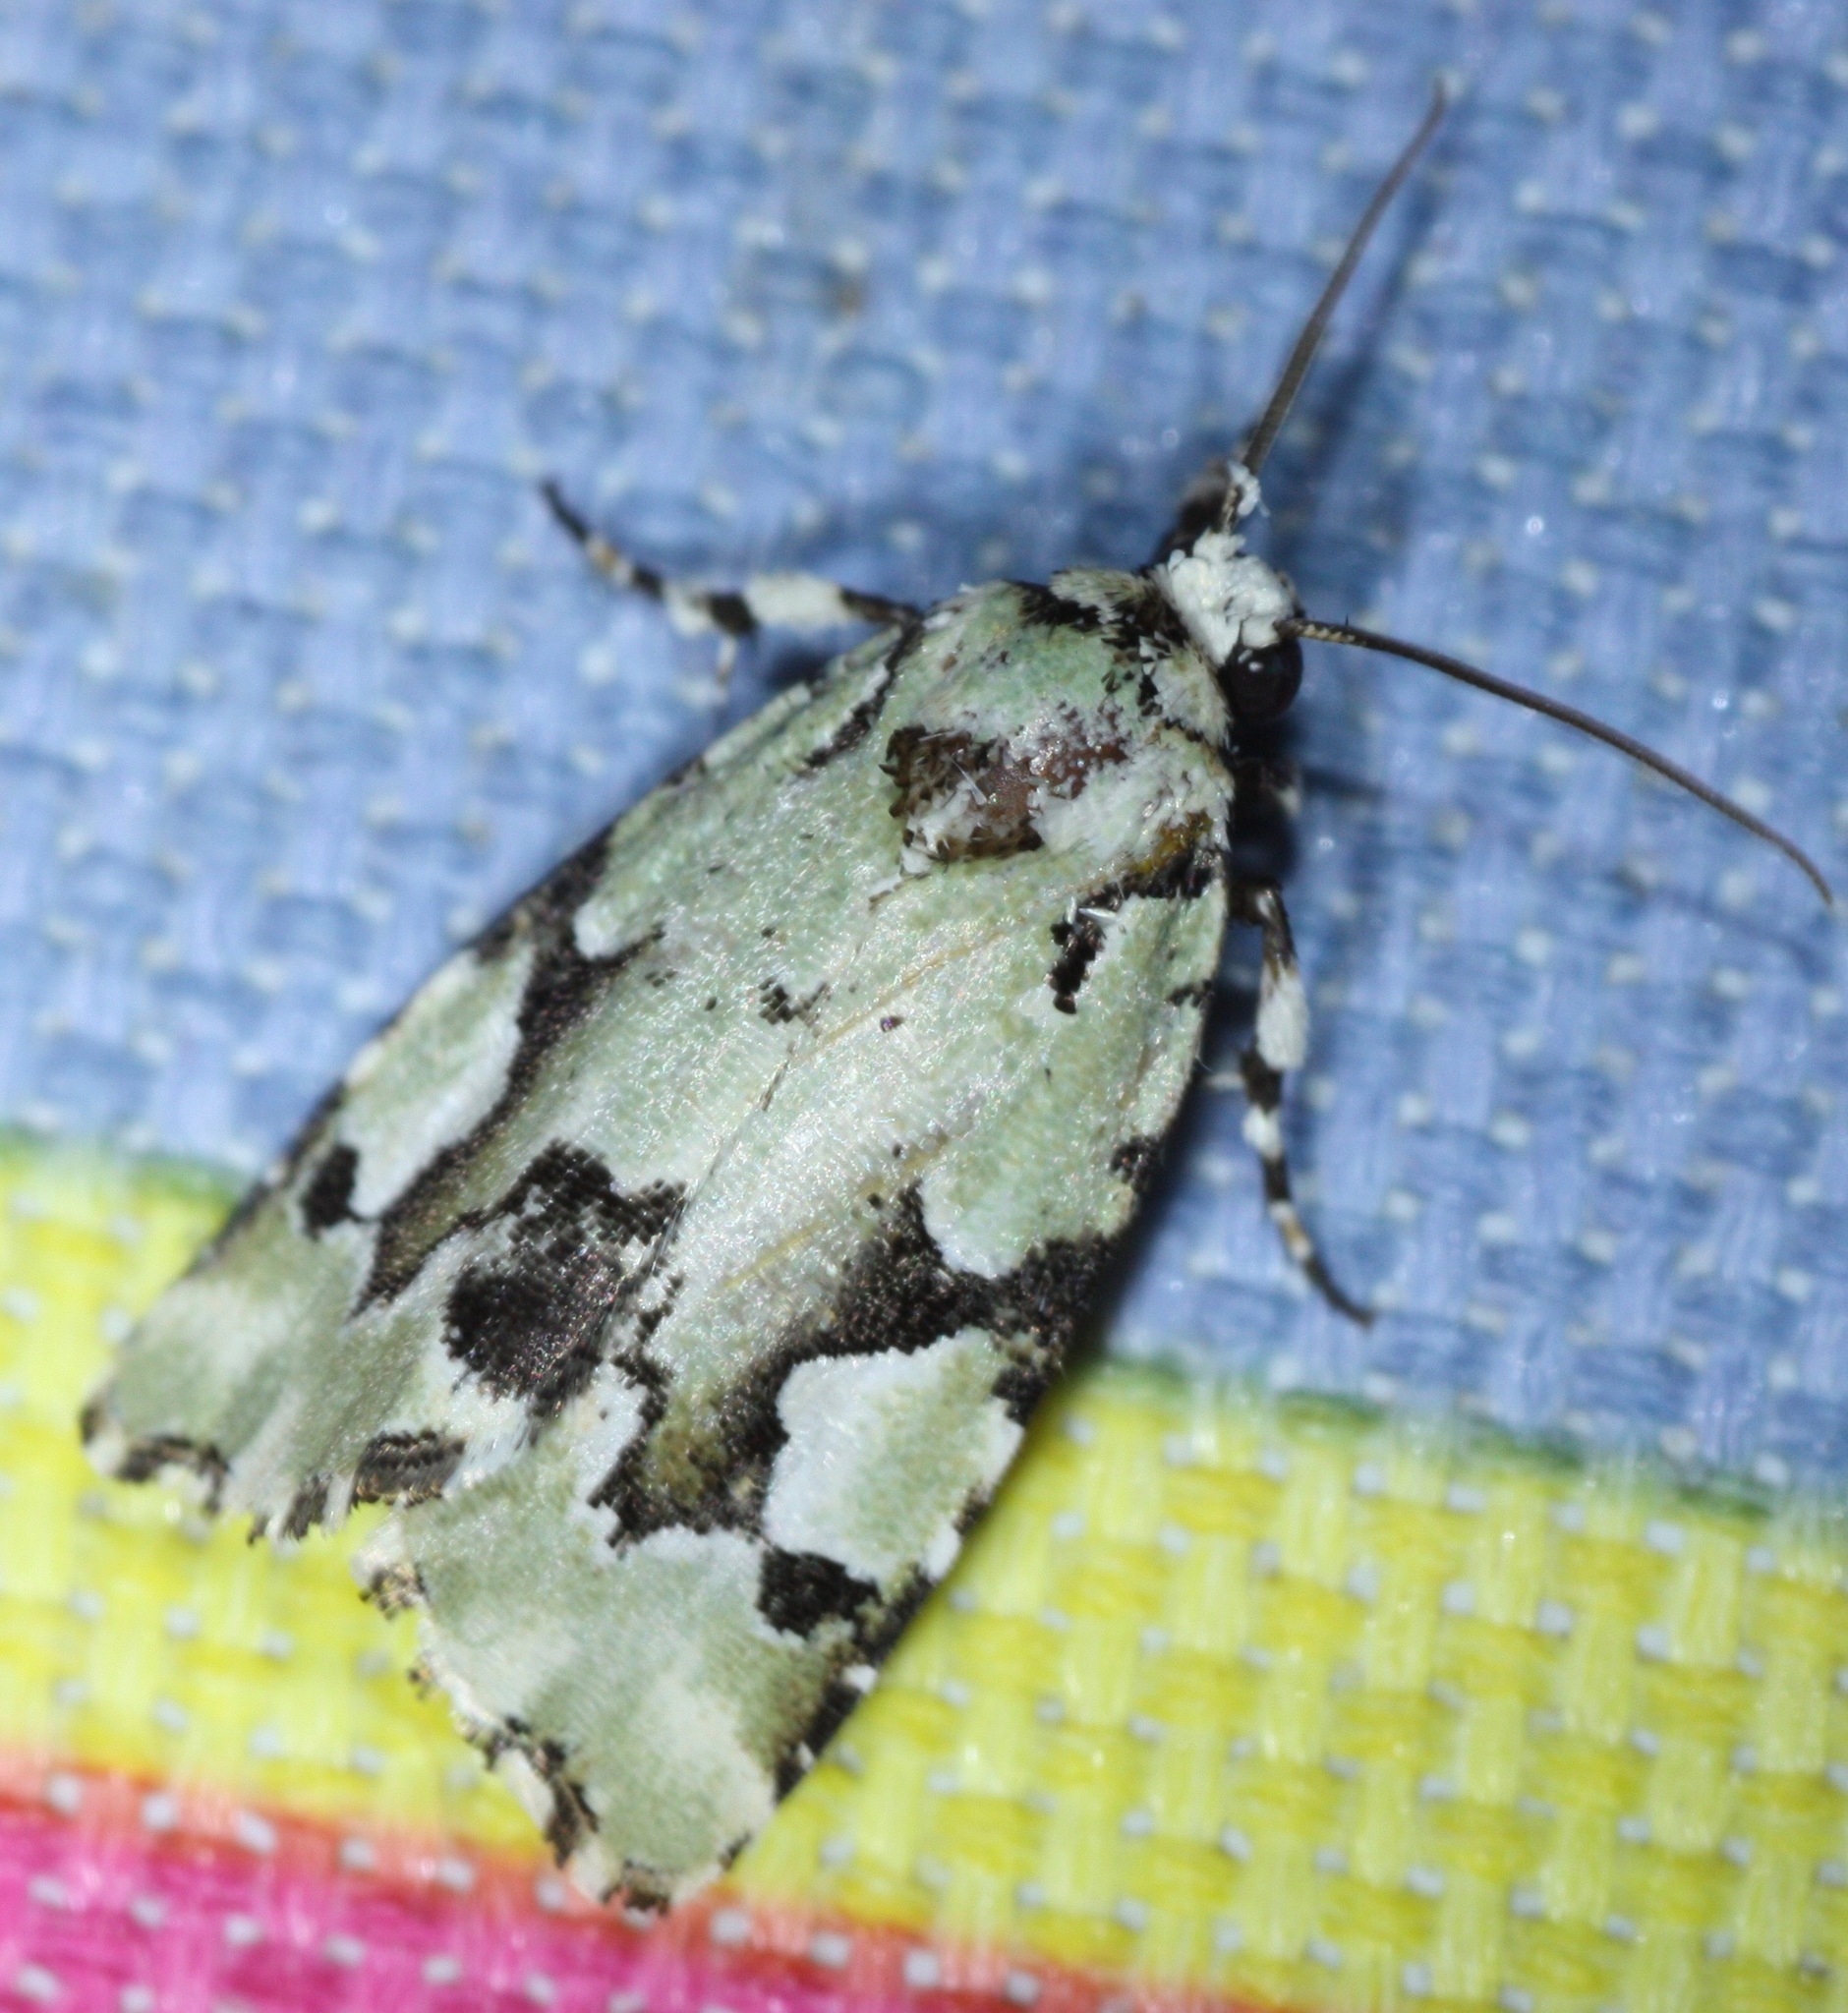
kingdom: Animalia
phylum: Arthropoda
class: Insecta
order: Lepidoptera
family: Noctuidae
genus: Emarginea
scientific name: Emarginea percara
